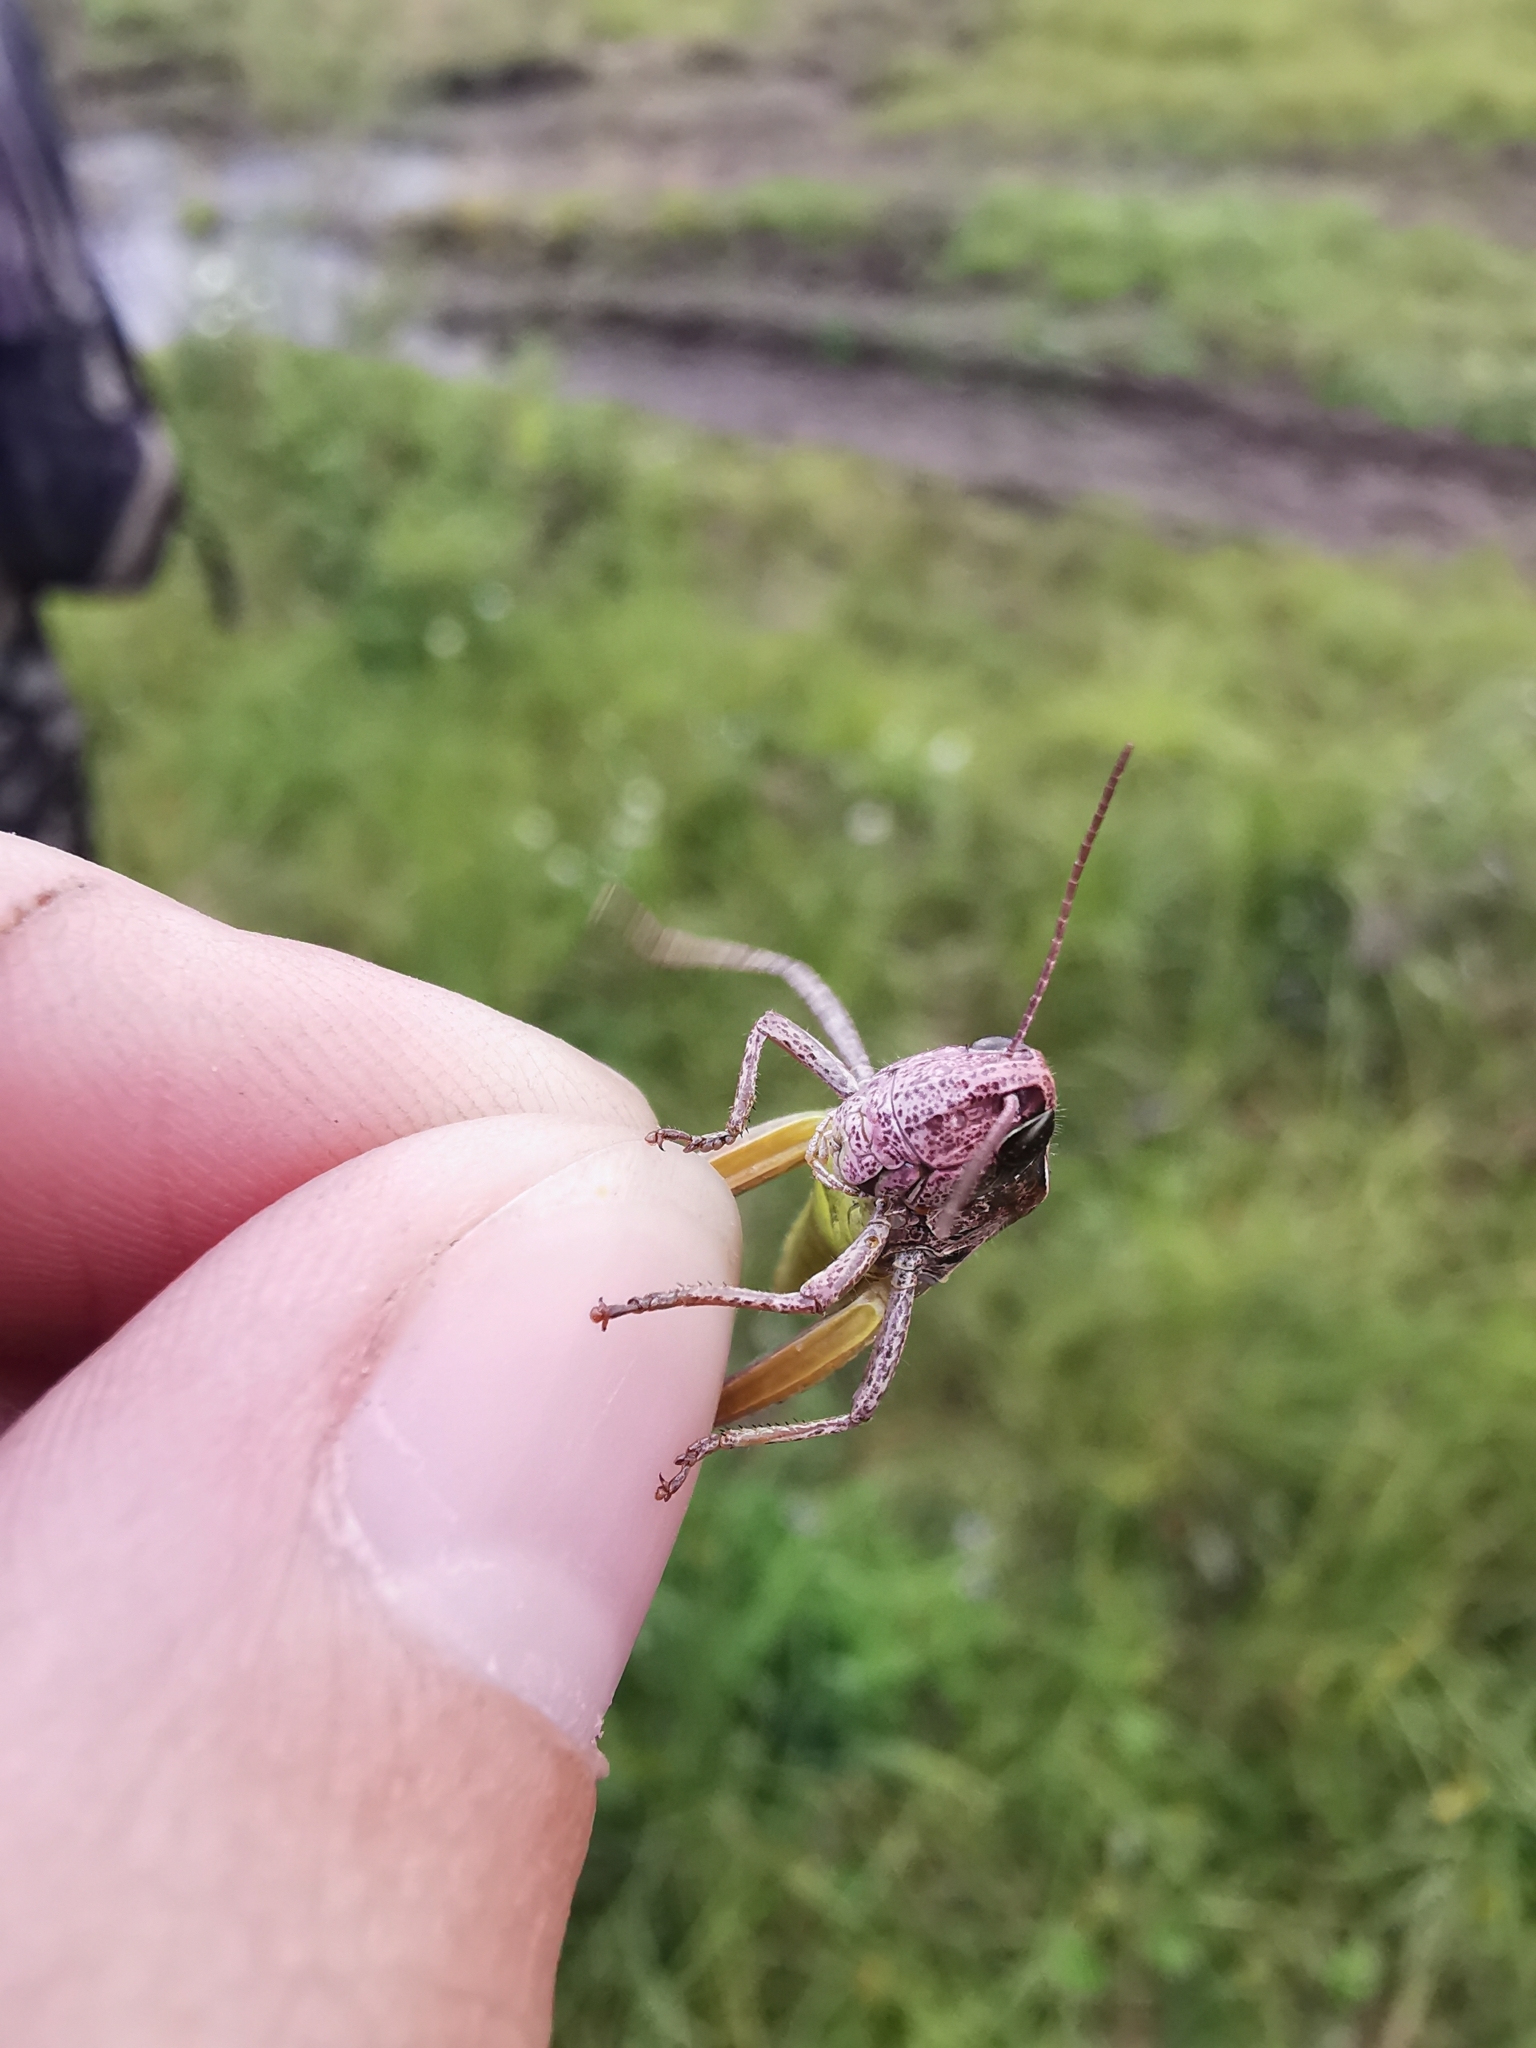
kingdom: Animalia
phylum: Arthropoda
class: Insecta
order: Orthoptera
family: Acrididae
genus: Pseudochorthippus
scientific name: Pseudochorthippus montanus
